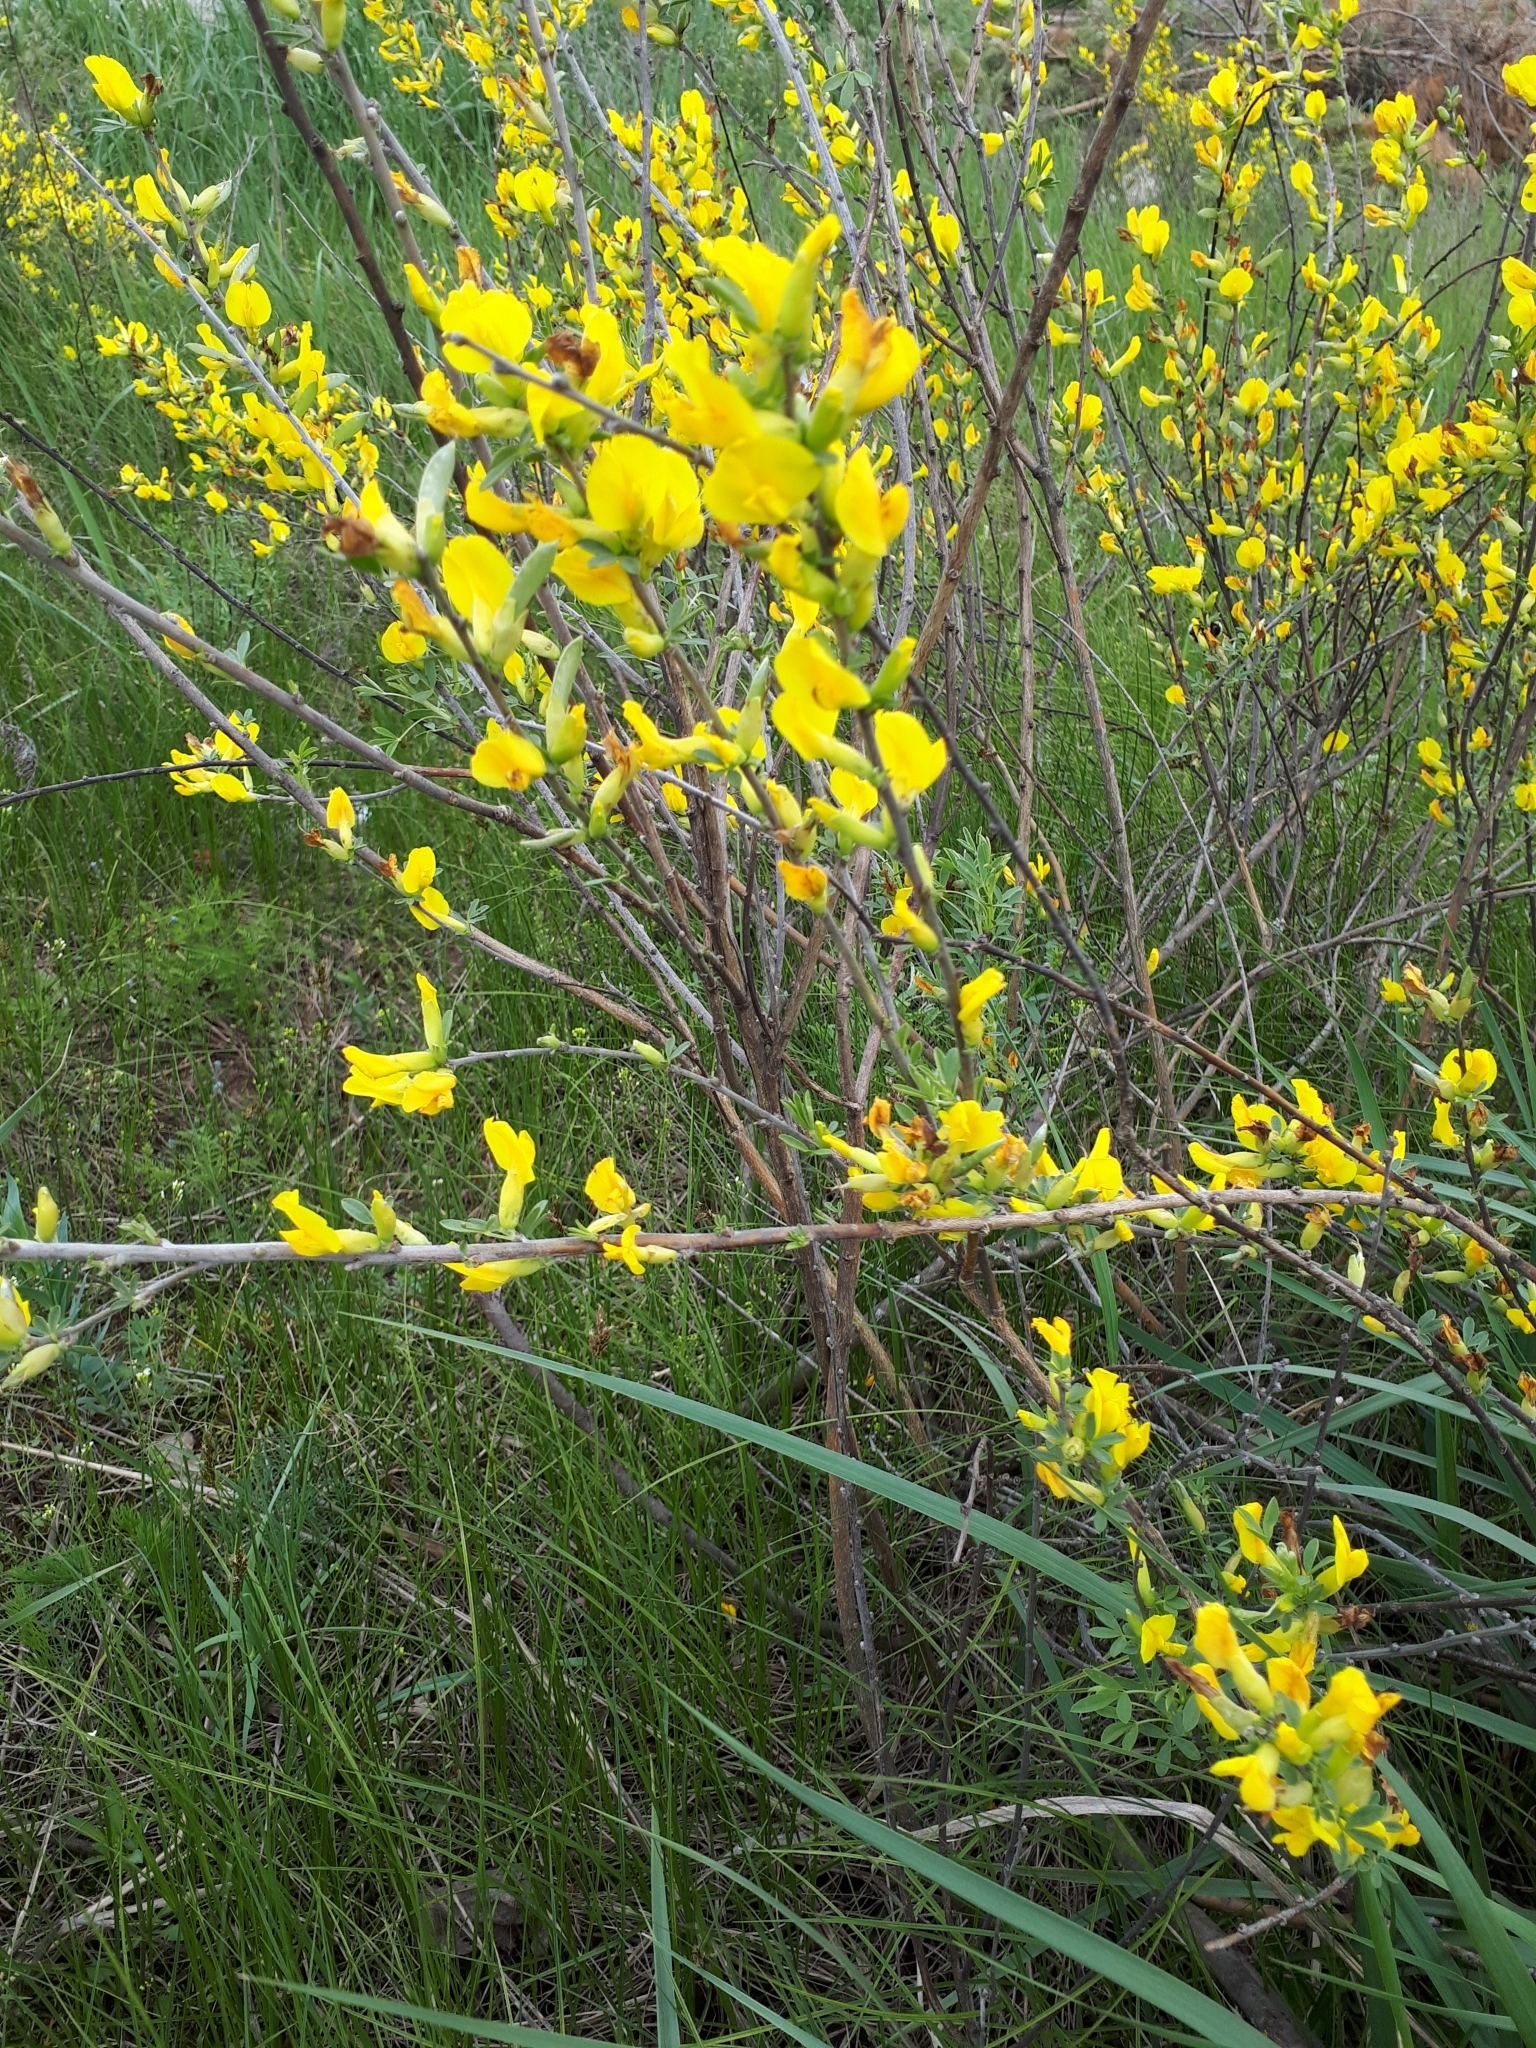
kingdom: Plantae
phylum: Tracheophyta
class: Magnoliopsida
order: Fabales
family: Fabaceae
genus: Chamaecytisus
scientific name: Chamaecytisus ruthenicus
